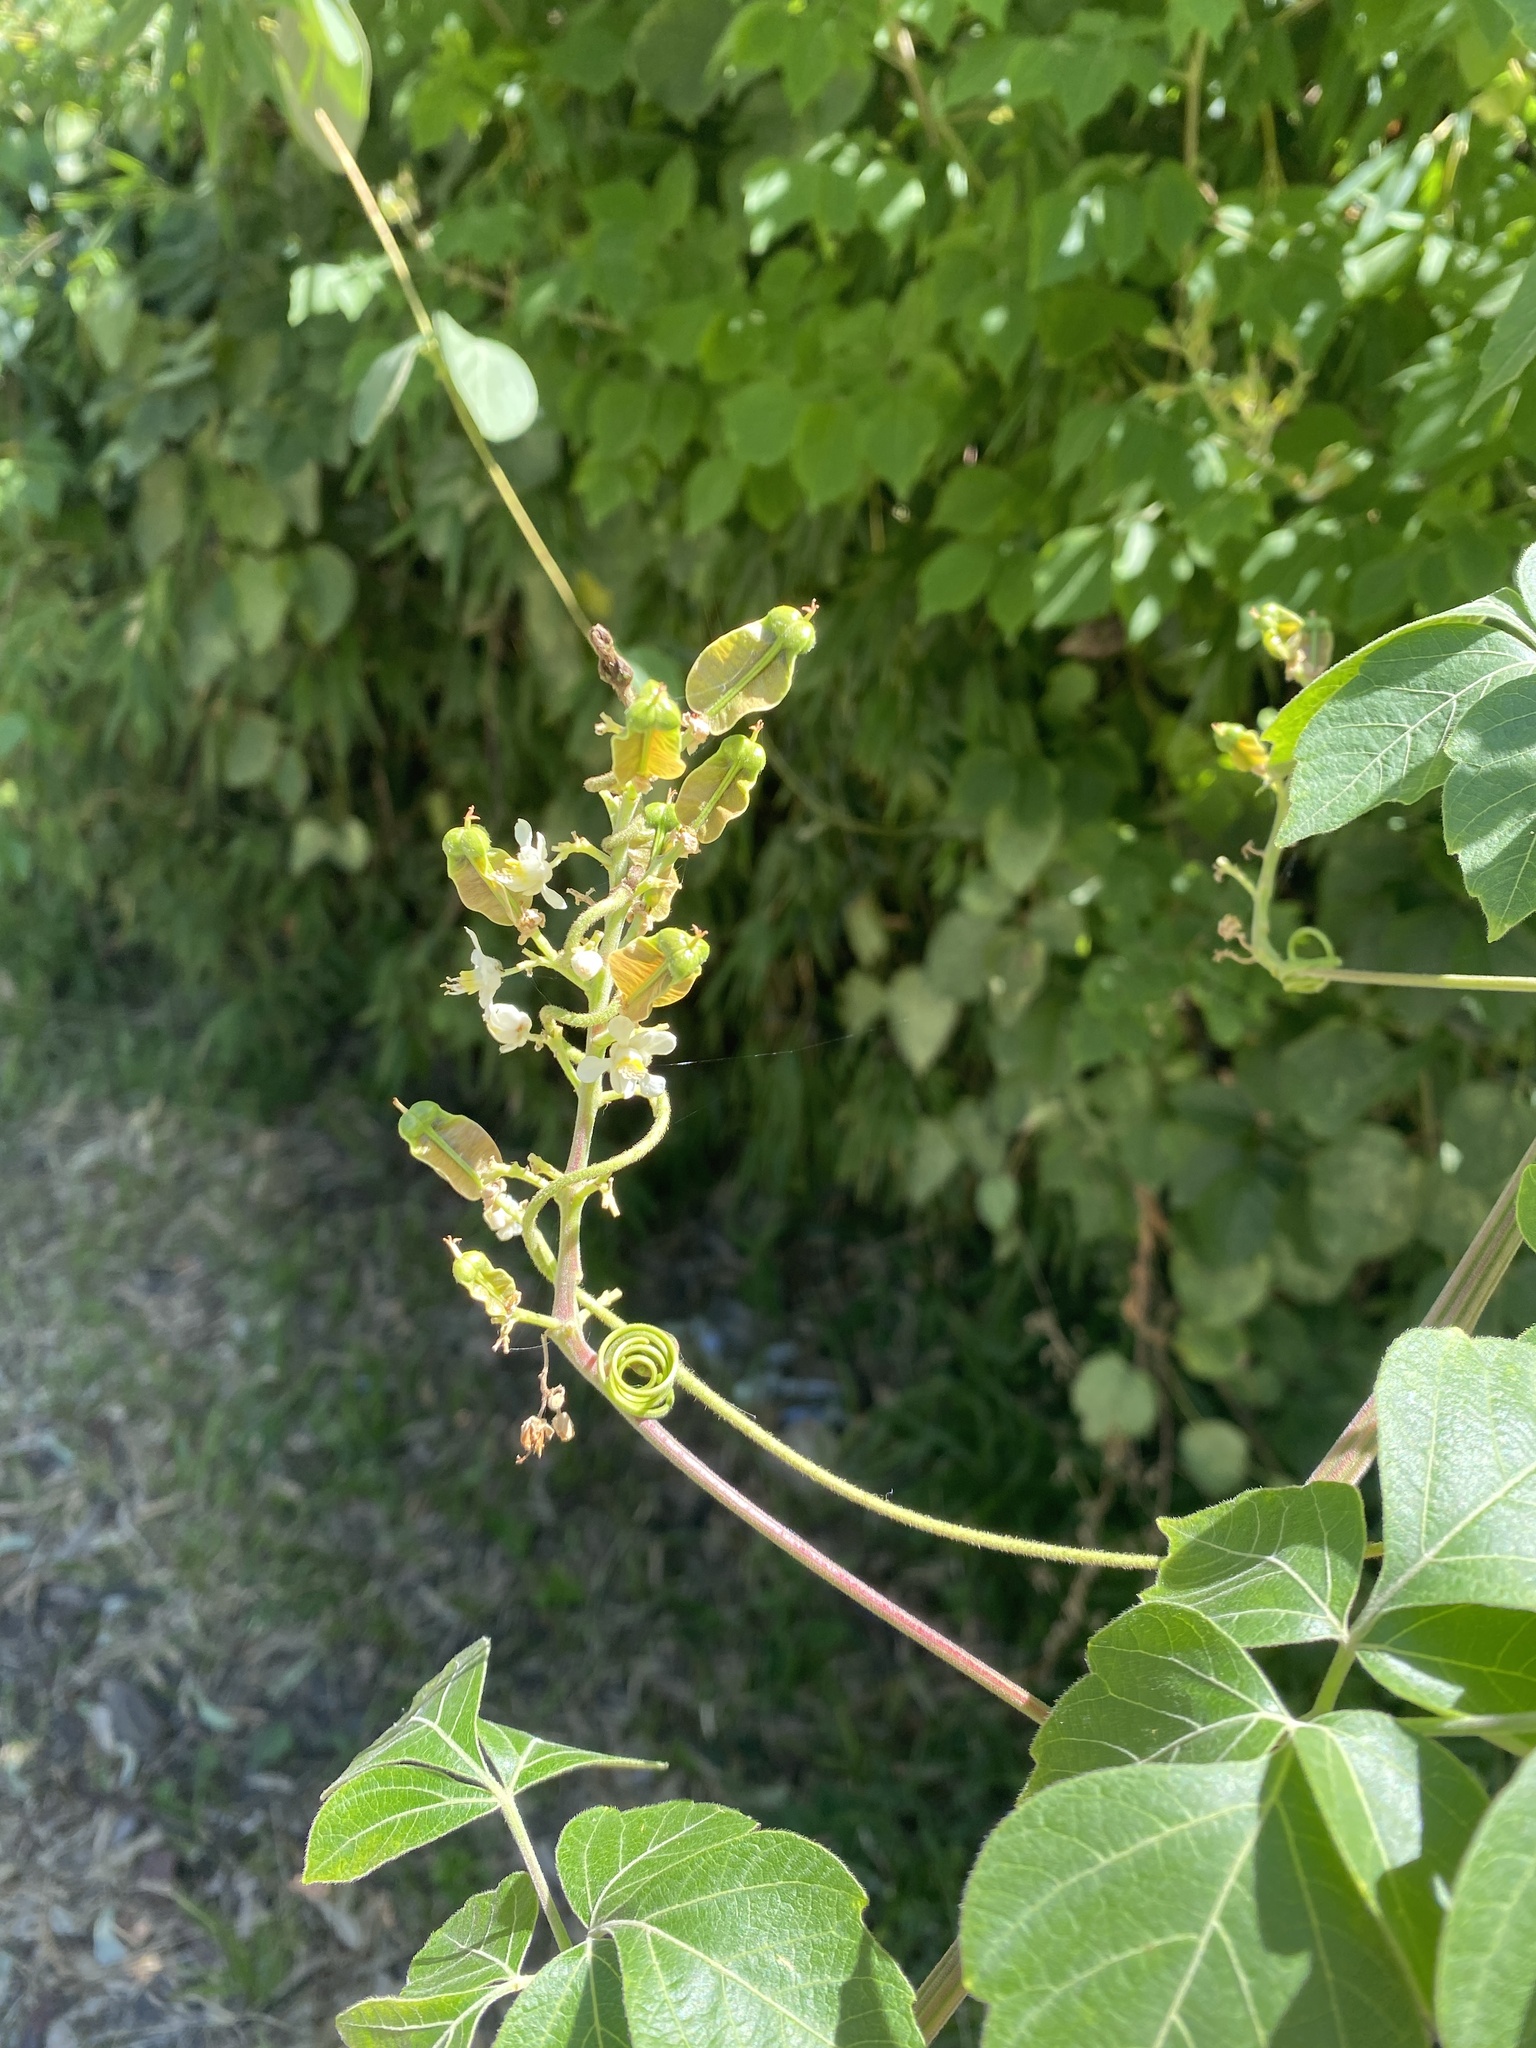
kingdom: Plantae
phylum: Tracheophyta
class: Magnoliopsida
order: Sapindales
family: Sapindaceae
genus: Serjania
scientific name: Serjania meridionalis
